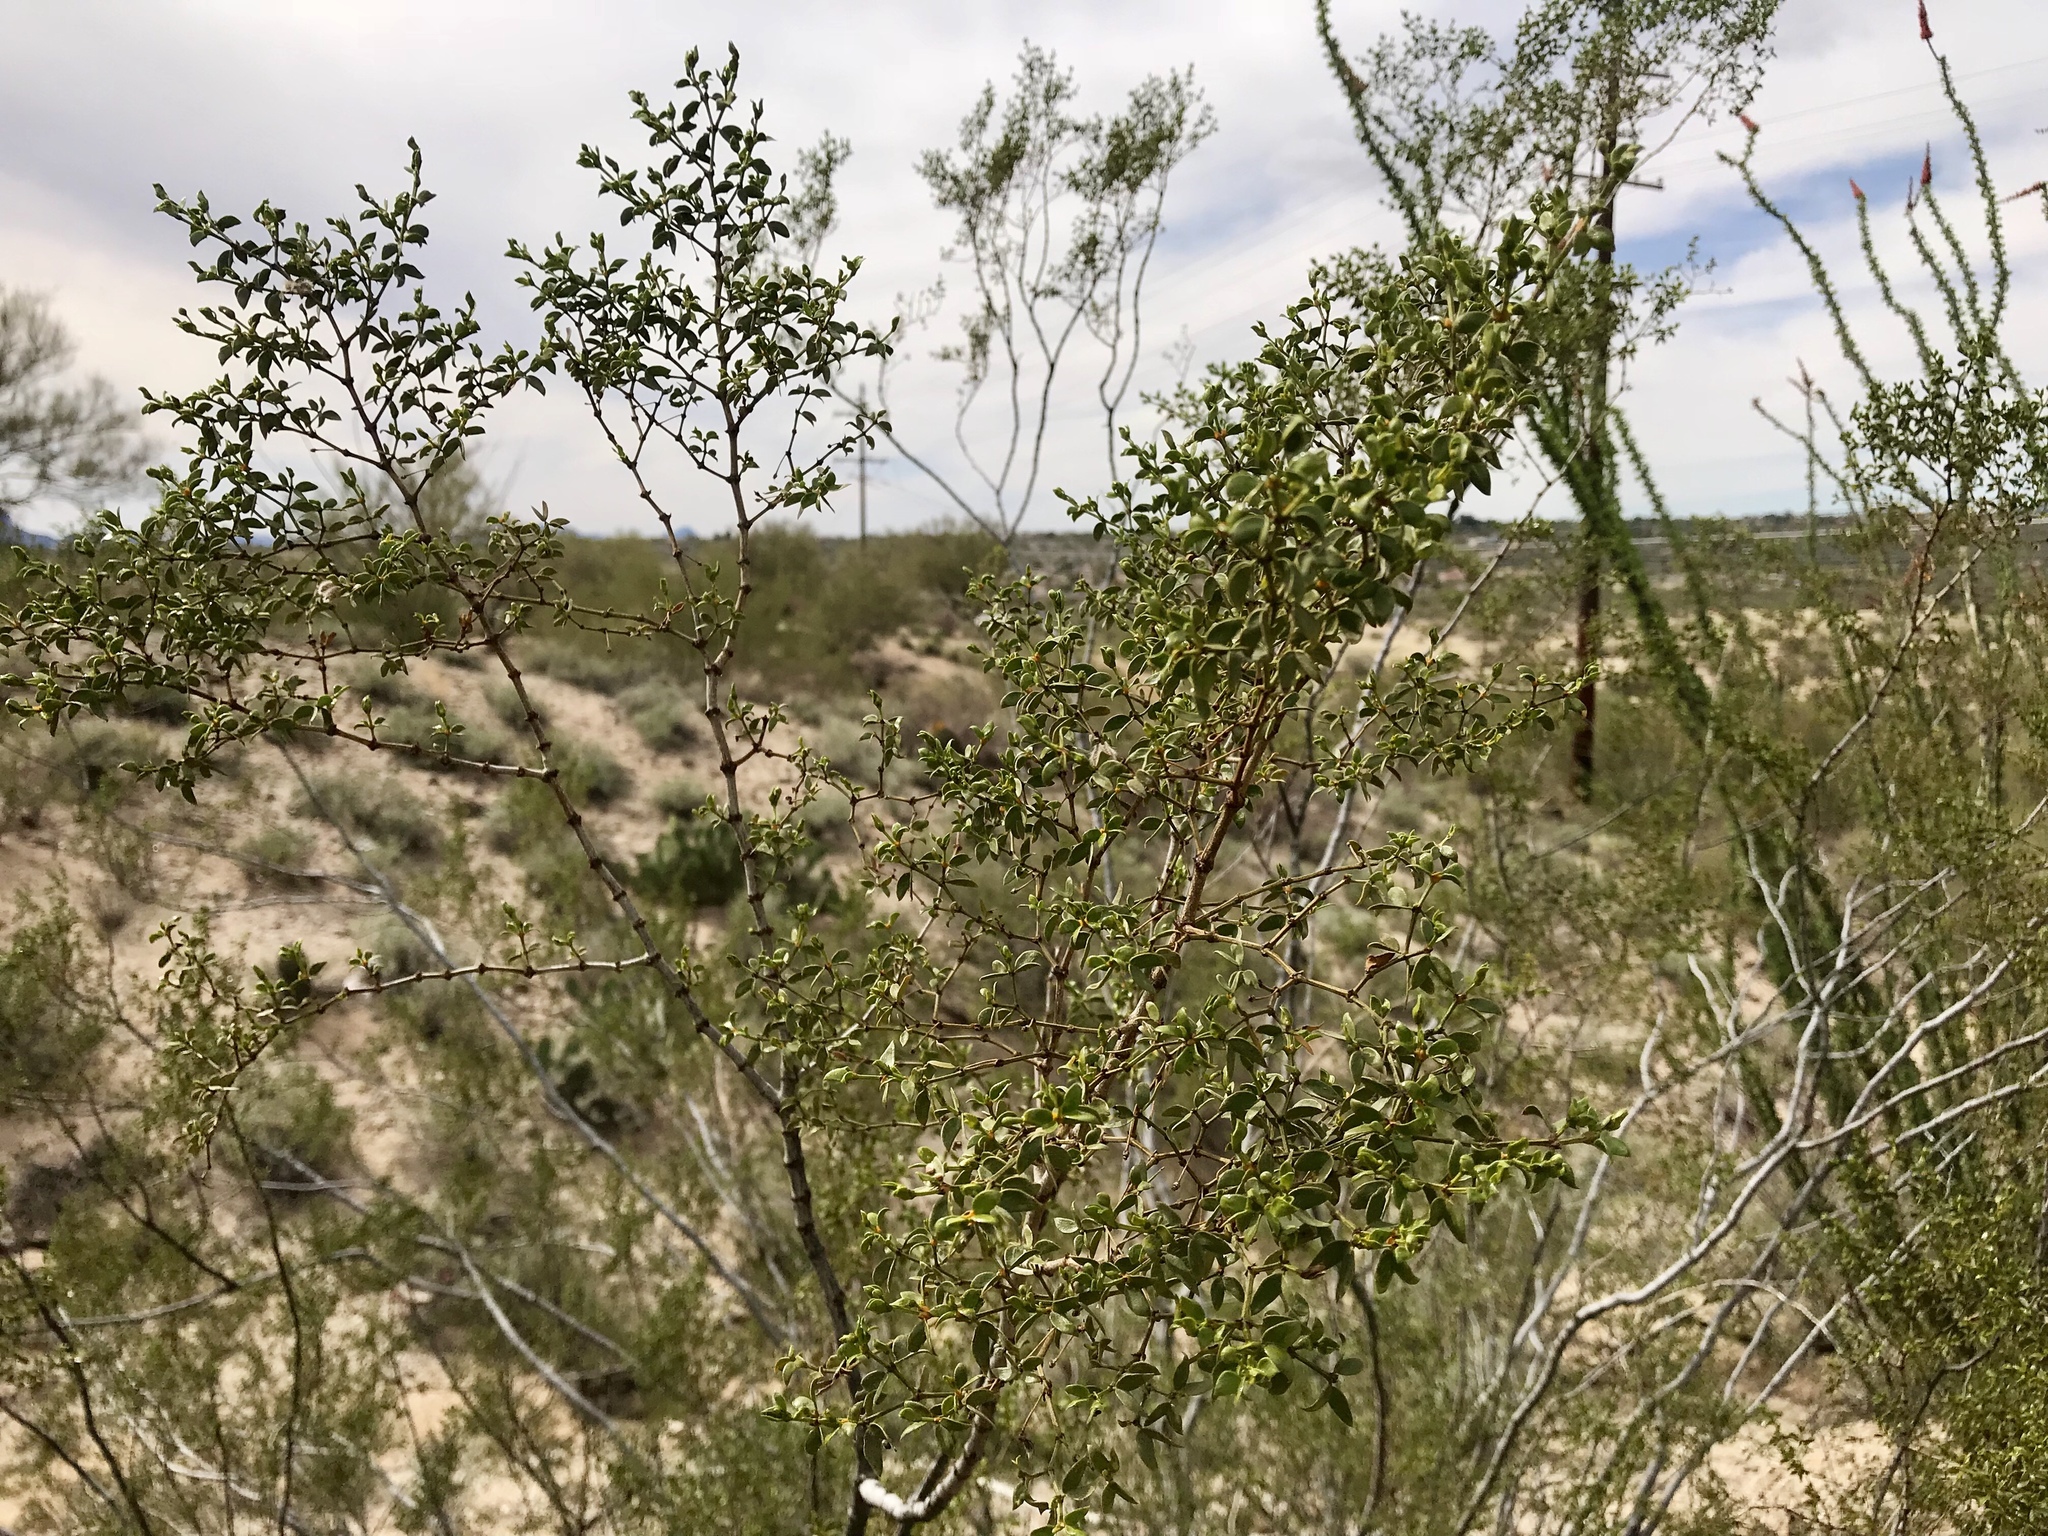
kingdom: Plantae
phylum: Tracheophyta
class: Magnoliopsida
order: Zygophyllales
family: Zygophyllaceae
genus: Larrea
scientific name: Larrea tridentata
